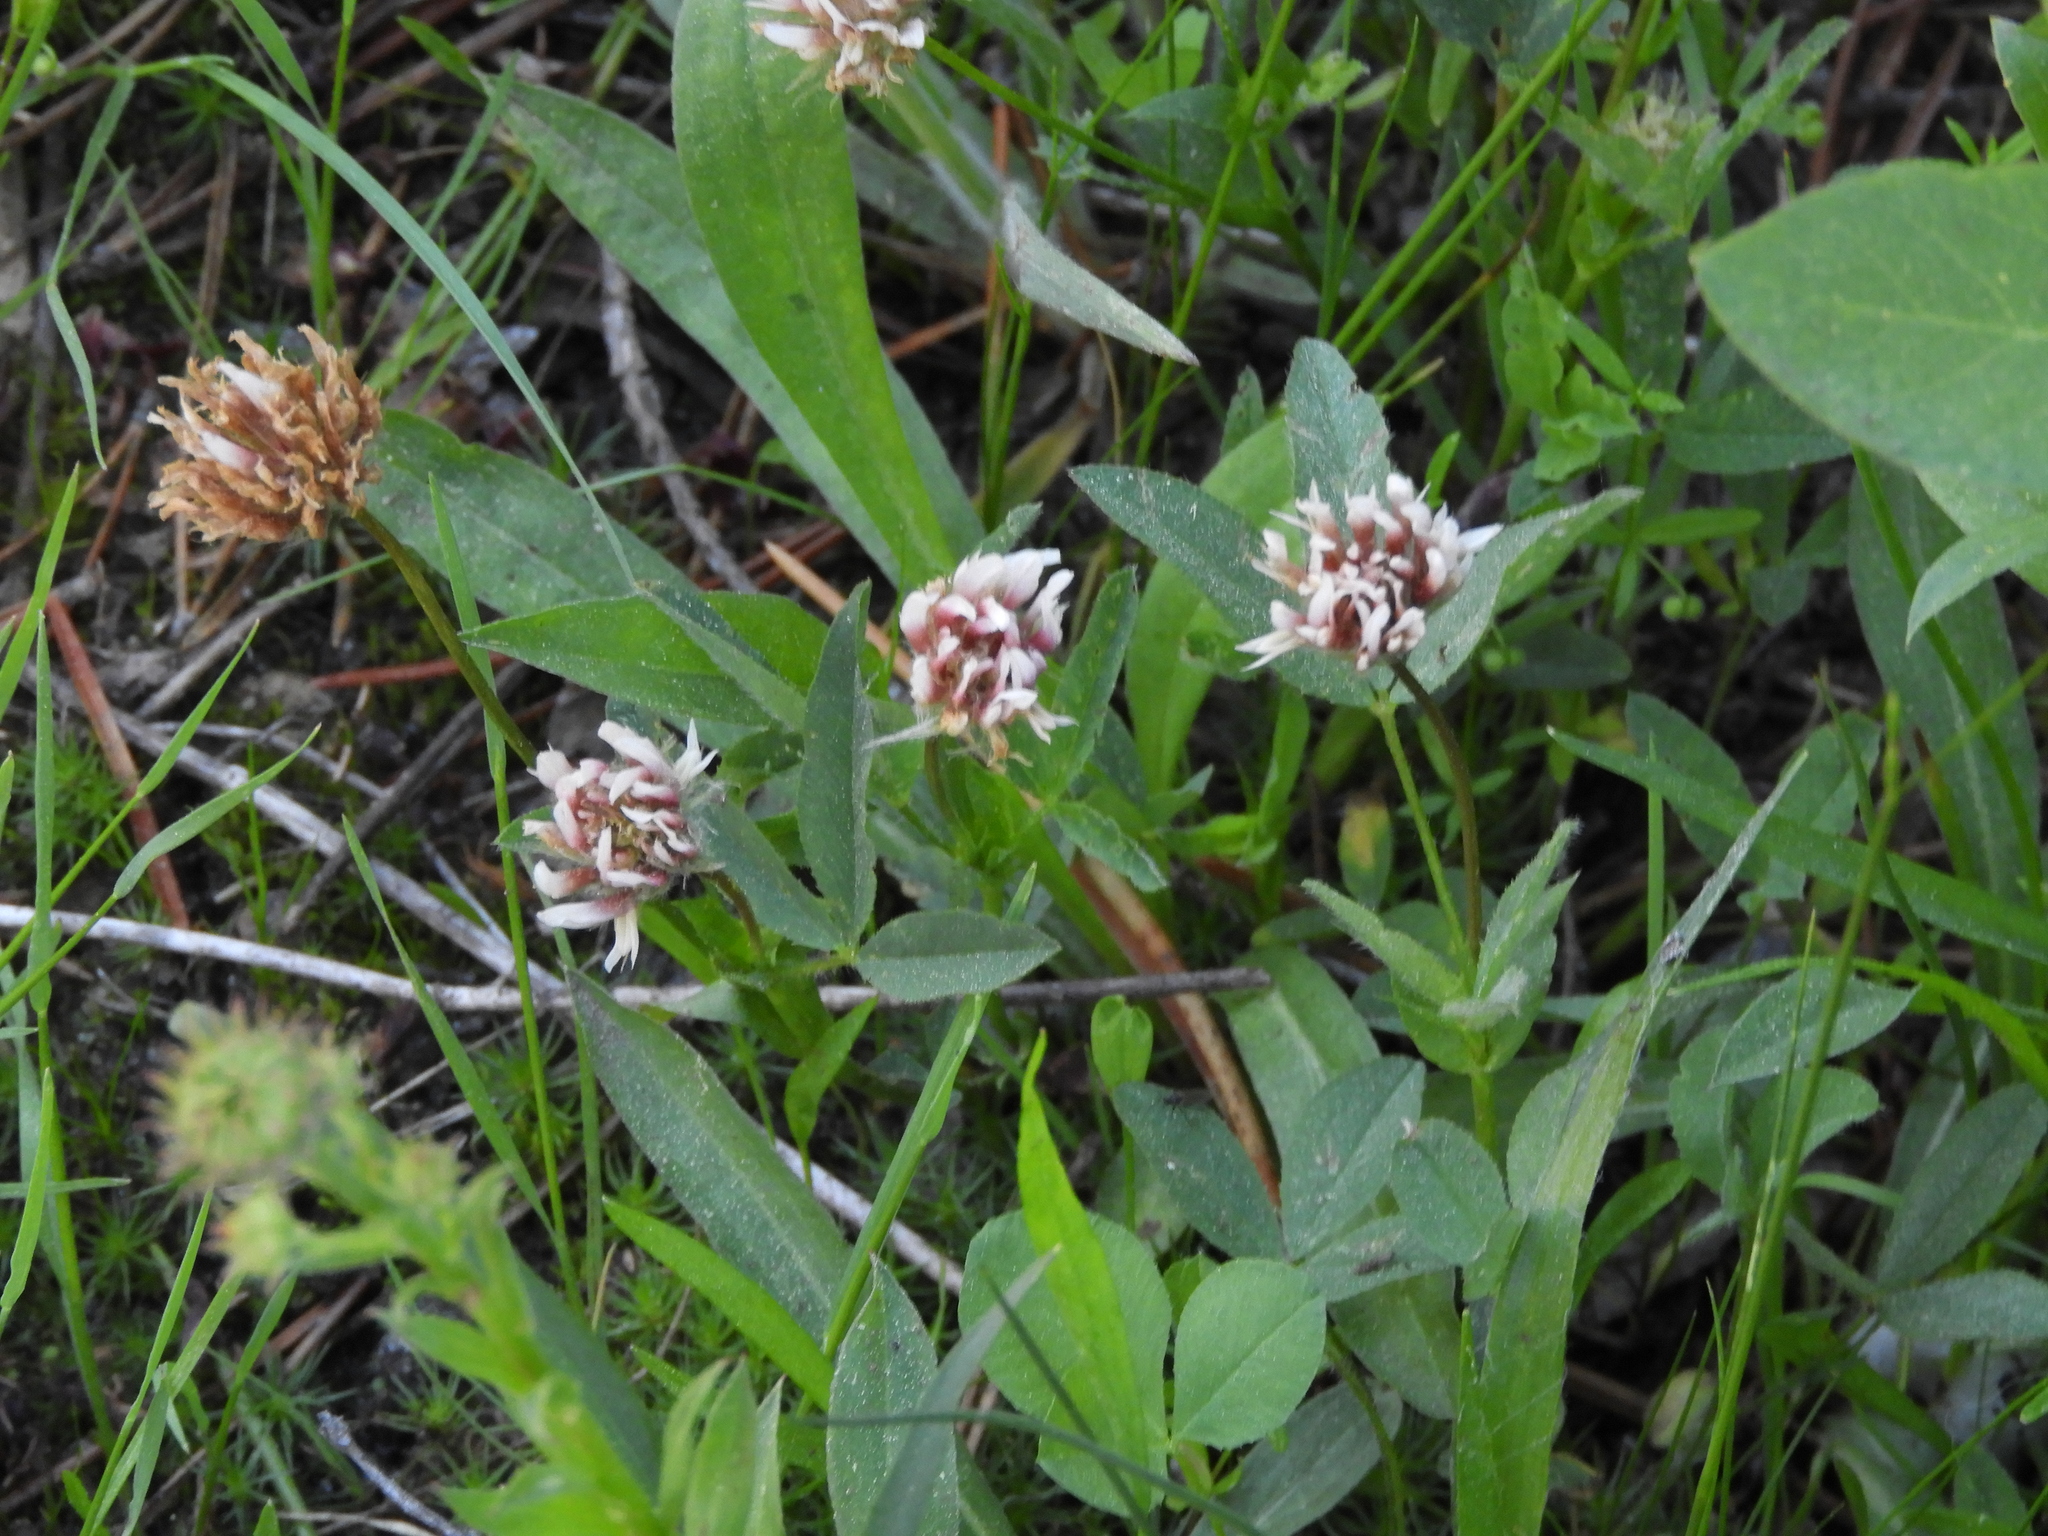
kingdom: Plantae
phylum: Tracheophyta
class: Magnoliopsida
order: Fabales
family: Fabaceae
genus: Trifolium
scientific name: Trifolium longipes
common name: Long-stalk clover
